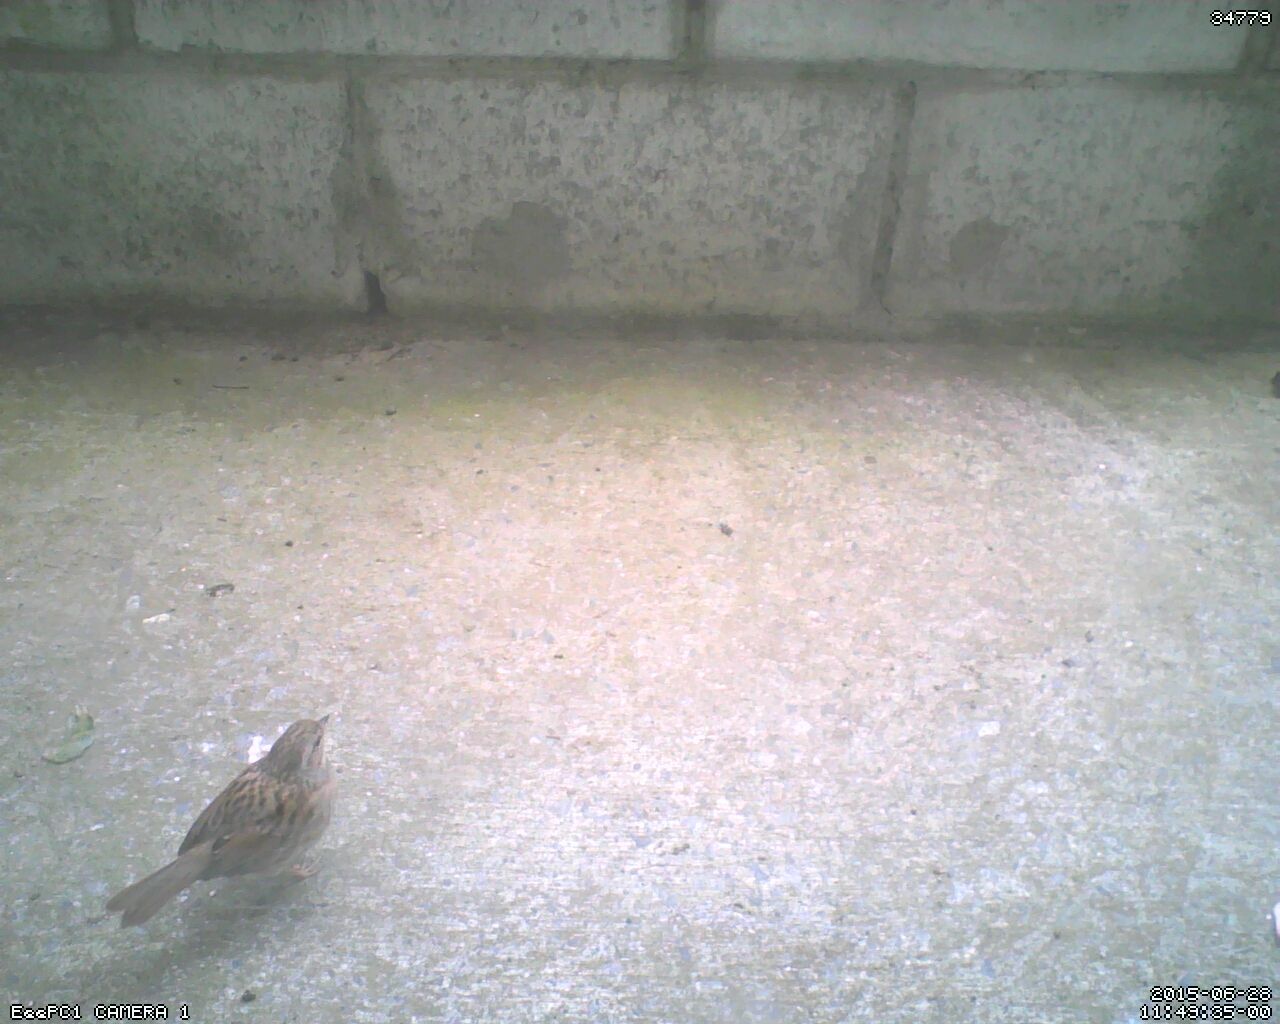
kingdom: Animalia
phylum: Chordata
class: Aves
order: Passeriformes
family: Prunellidae
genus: Prunella
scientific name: Prunella modularis
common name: Dunnock
